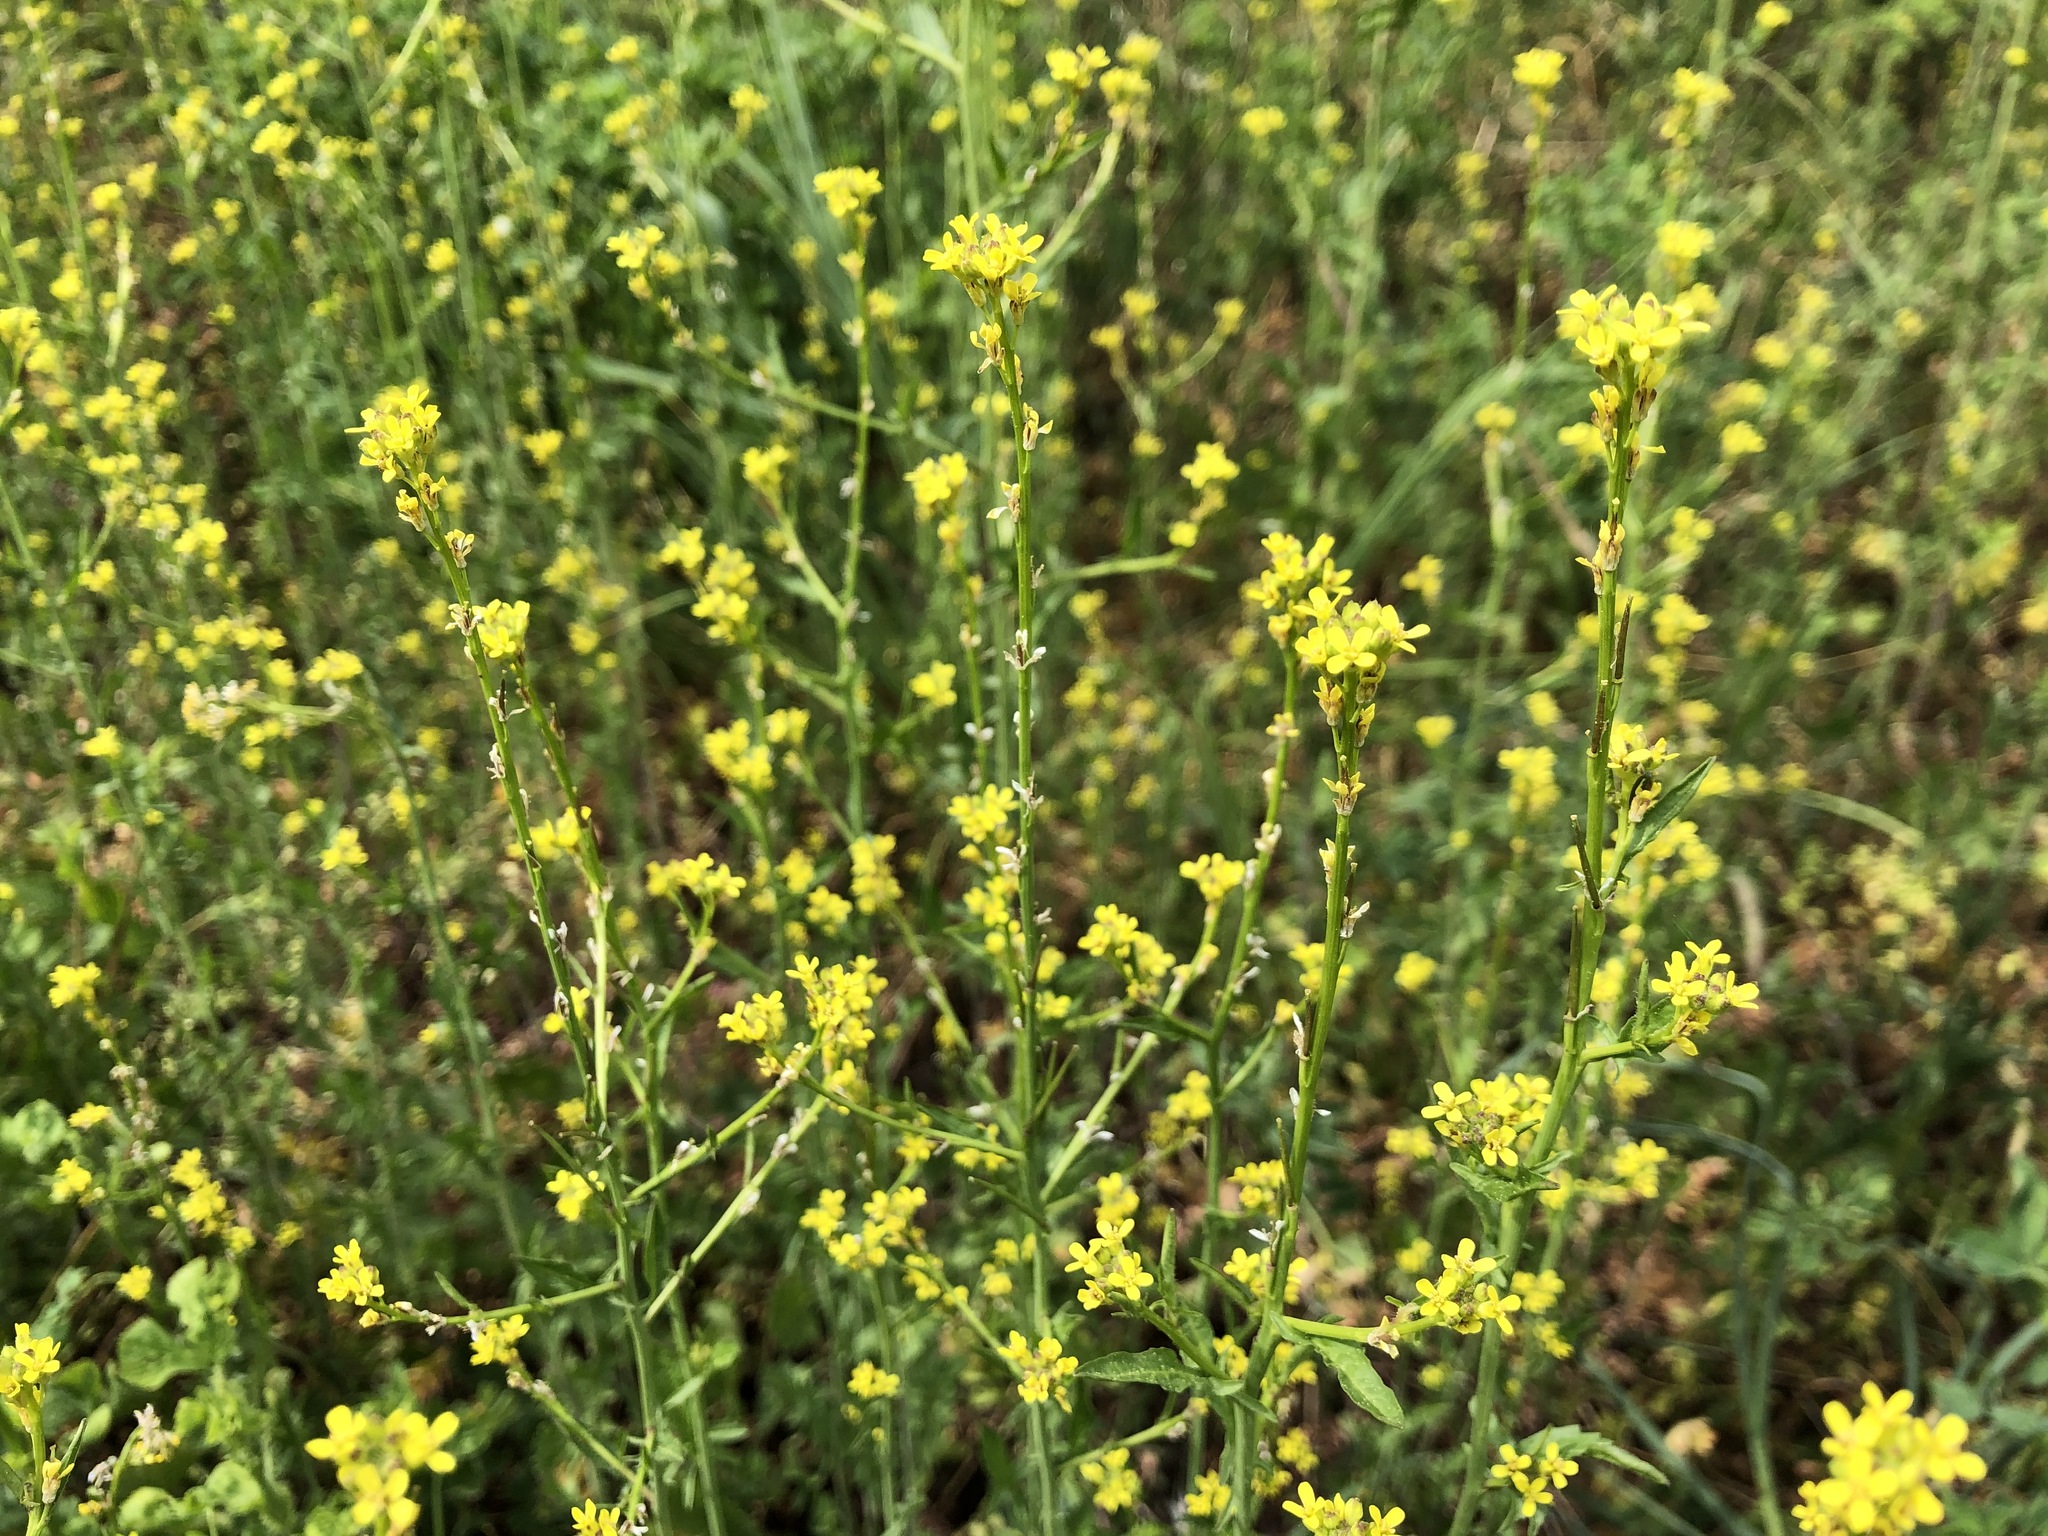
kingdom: Plantae
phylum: Tracheophyta
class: Magnoliopsida
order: Brassicales
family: Brassicaceae
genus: Sisymbrium
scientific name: Sisymbrium officinale
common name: Hedge mustard
